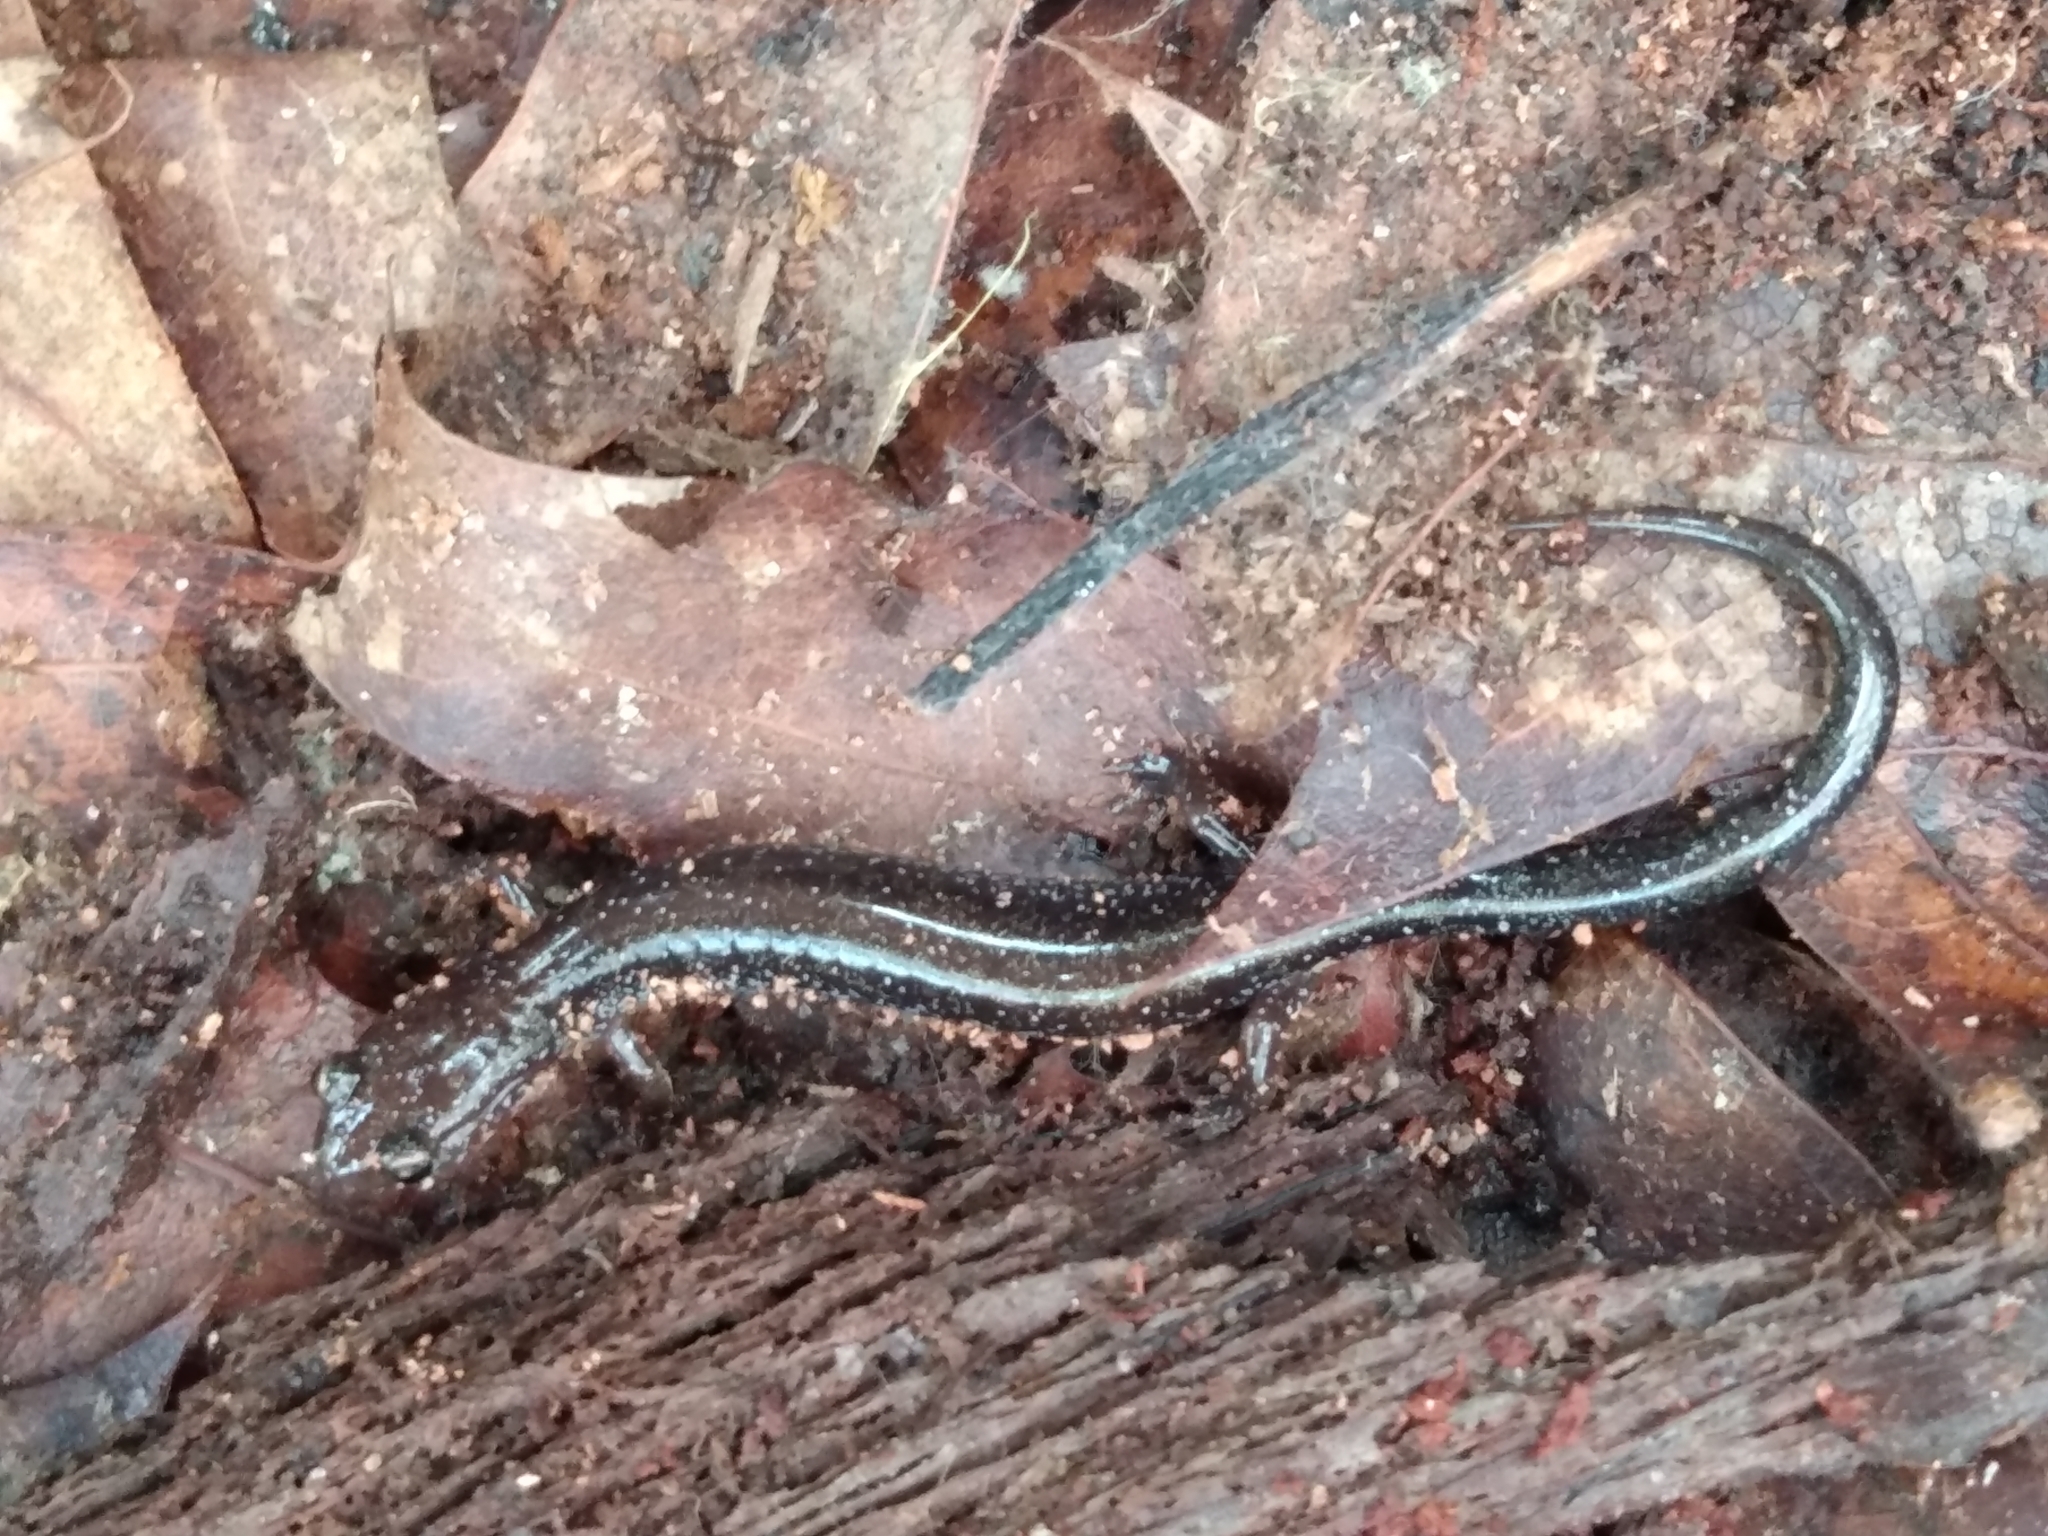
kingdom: Animalia
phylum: Chordata
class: Amphibia
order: Caudata
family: Plethodontidae
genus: Plethodon
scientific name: Plethodon cinereus
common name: Redback salamander
